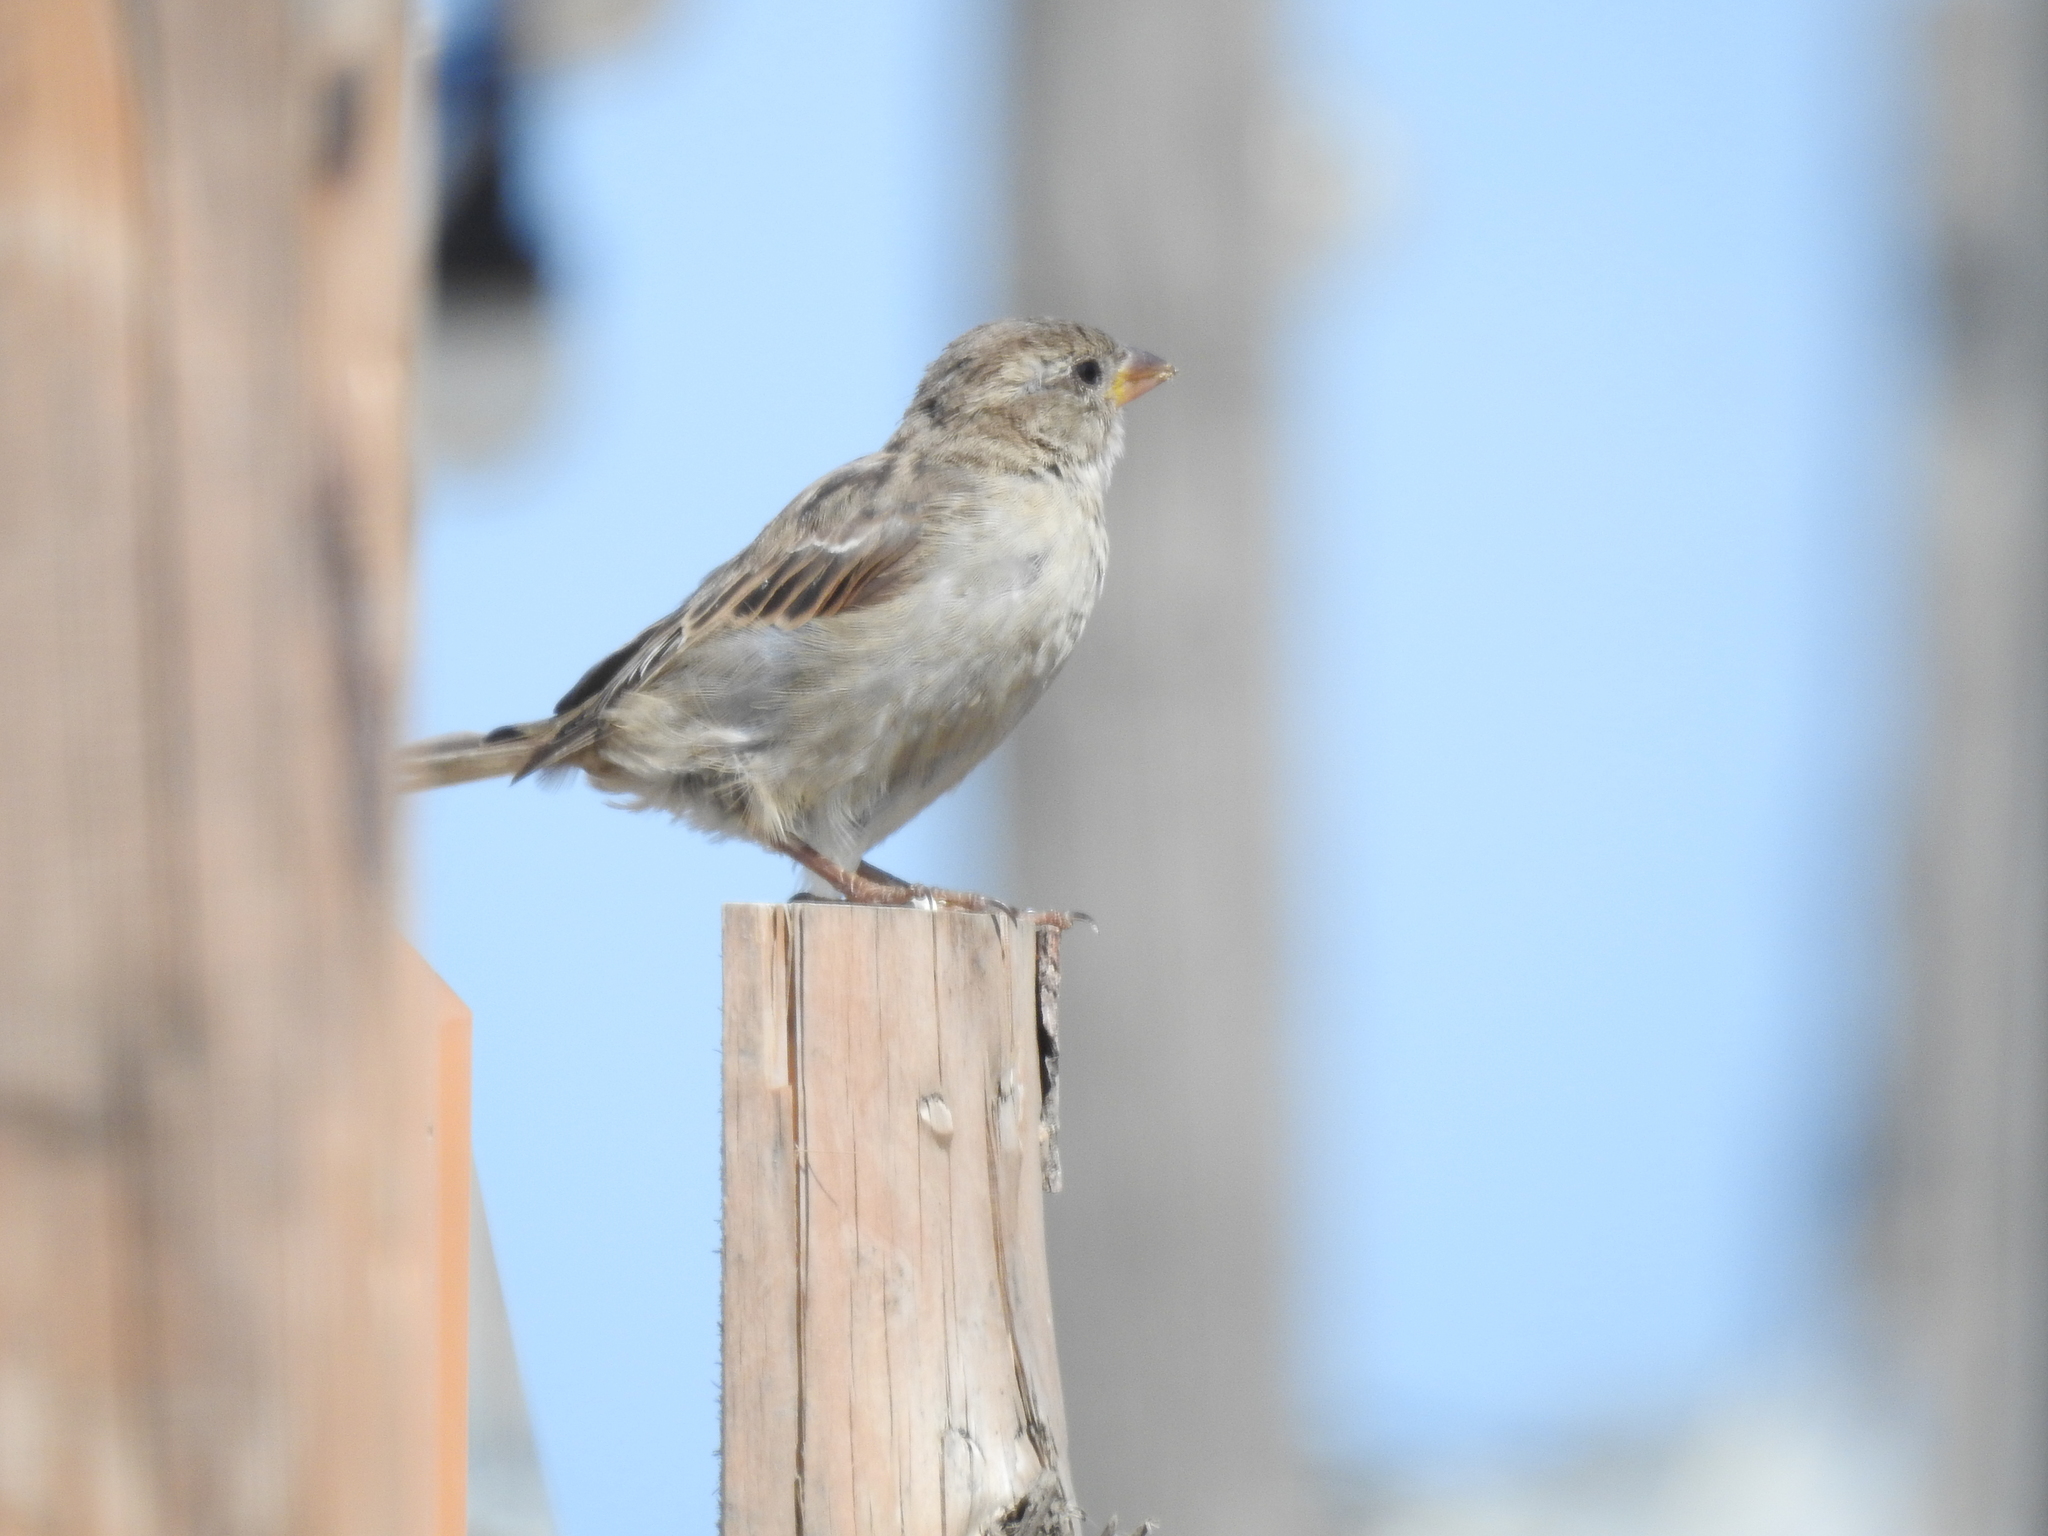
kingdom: Animalia
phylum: Chordata
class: Aves
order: Passeriformes
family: Passeridae
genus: Passer
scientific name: Passer domesticus
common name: House sparrow
